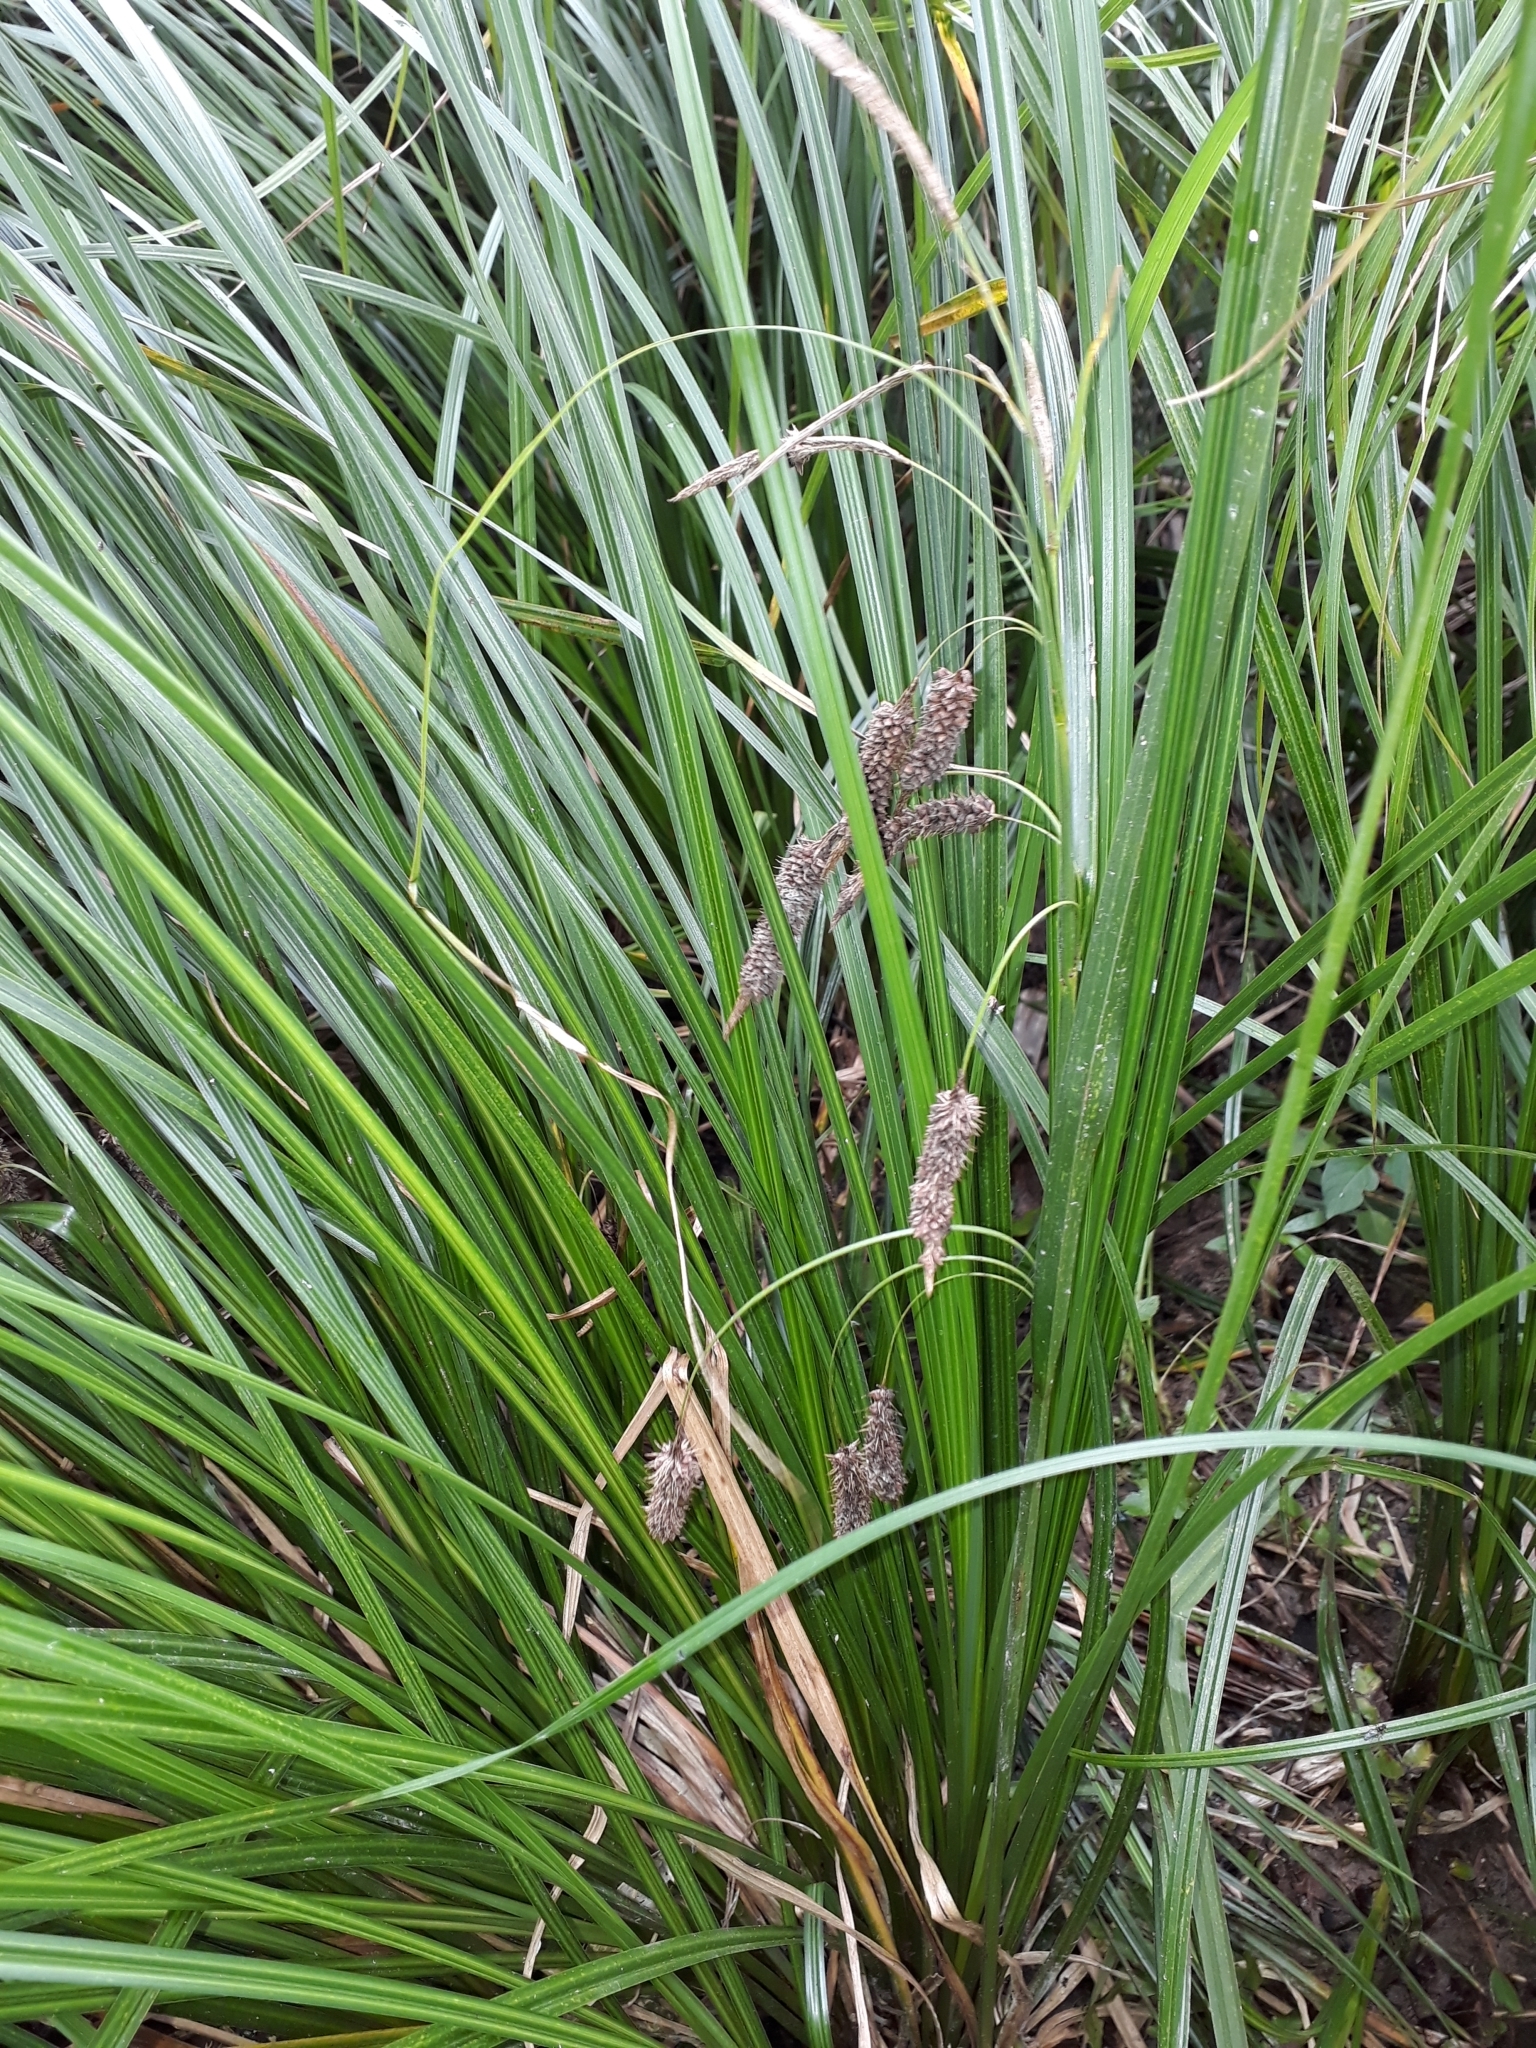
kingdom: Plantae
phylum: Tracheophyta
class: Liliopsida
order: Poales
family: Cyperaceae
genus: Carex
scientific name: Carex geminata
